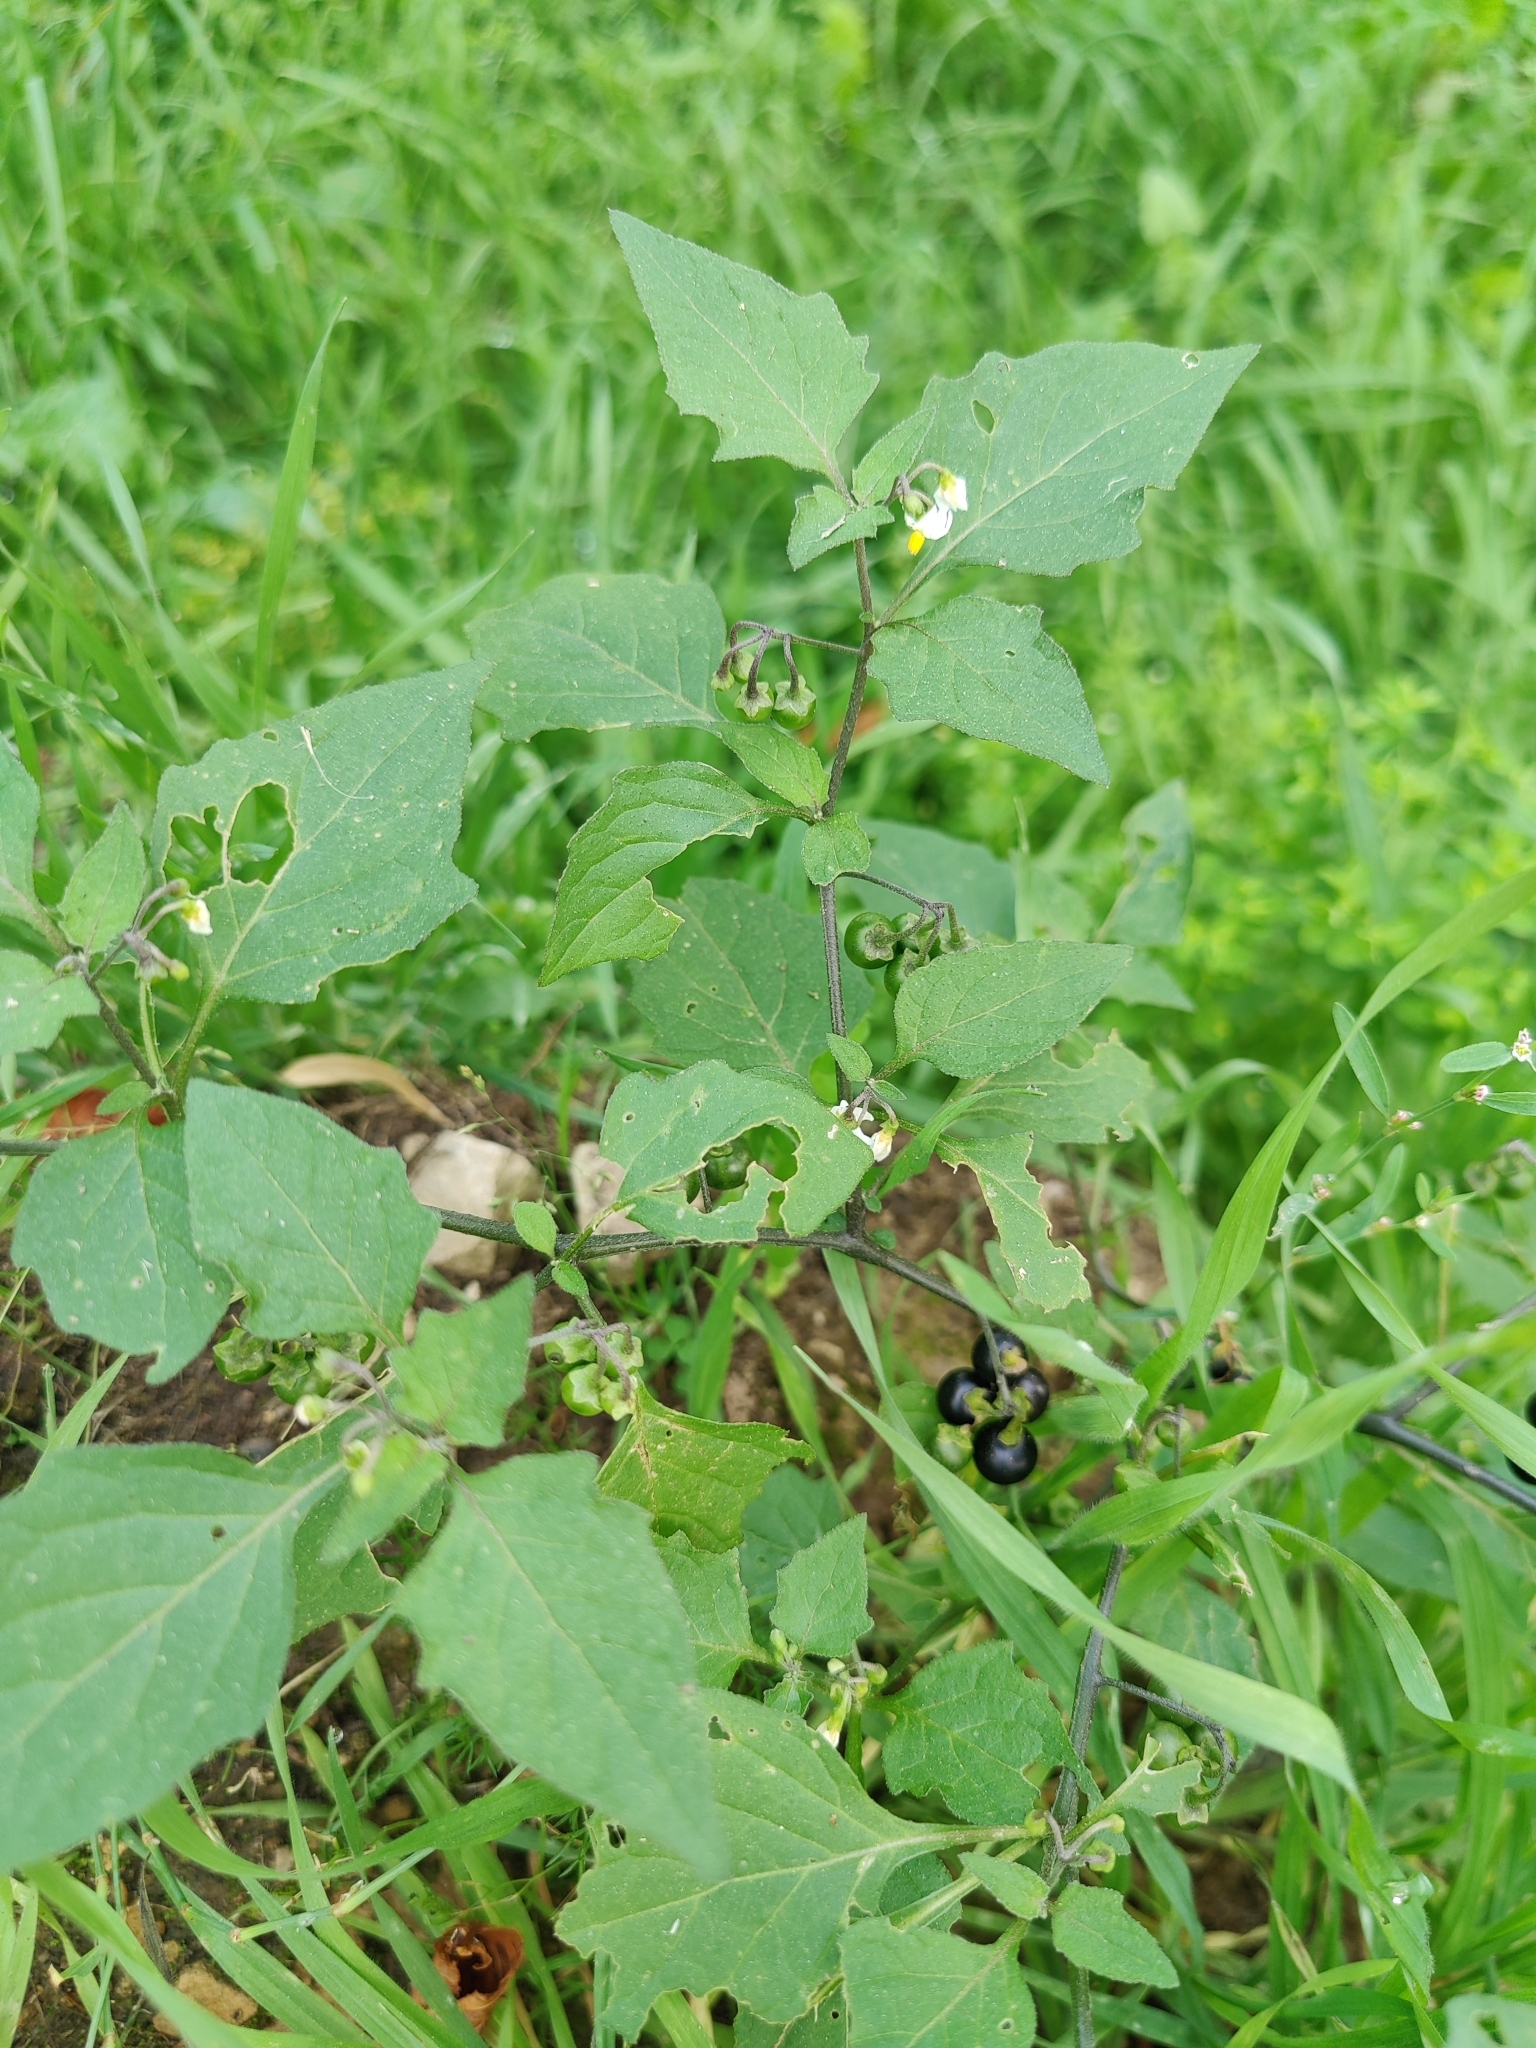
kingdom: Plantae
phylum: Tracheophyta
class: Magnoliopsida
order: Solanales
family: Solanaceae
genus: Solanum
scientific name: Solanum nigrum
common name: Black nightshade
